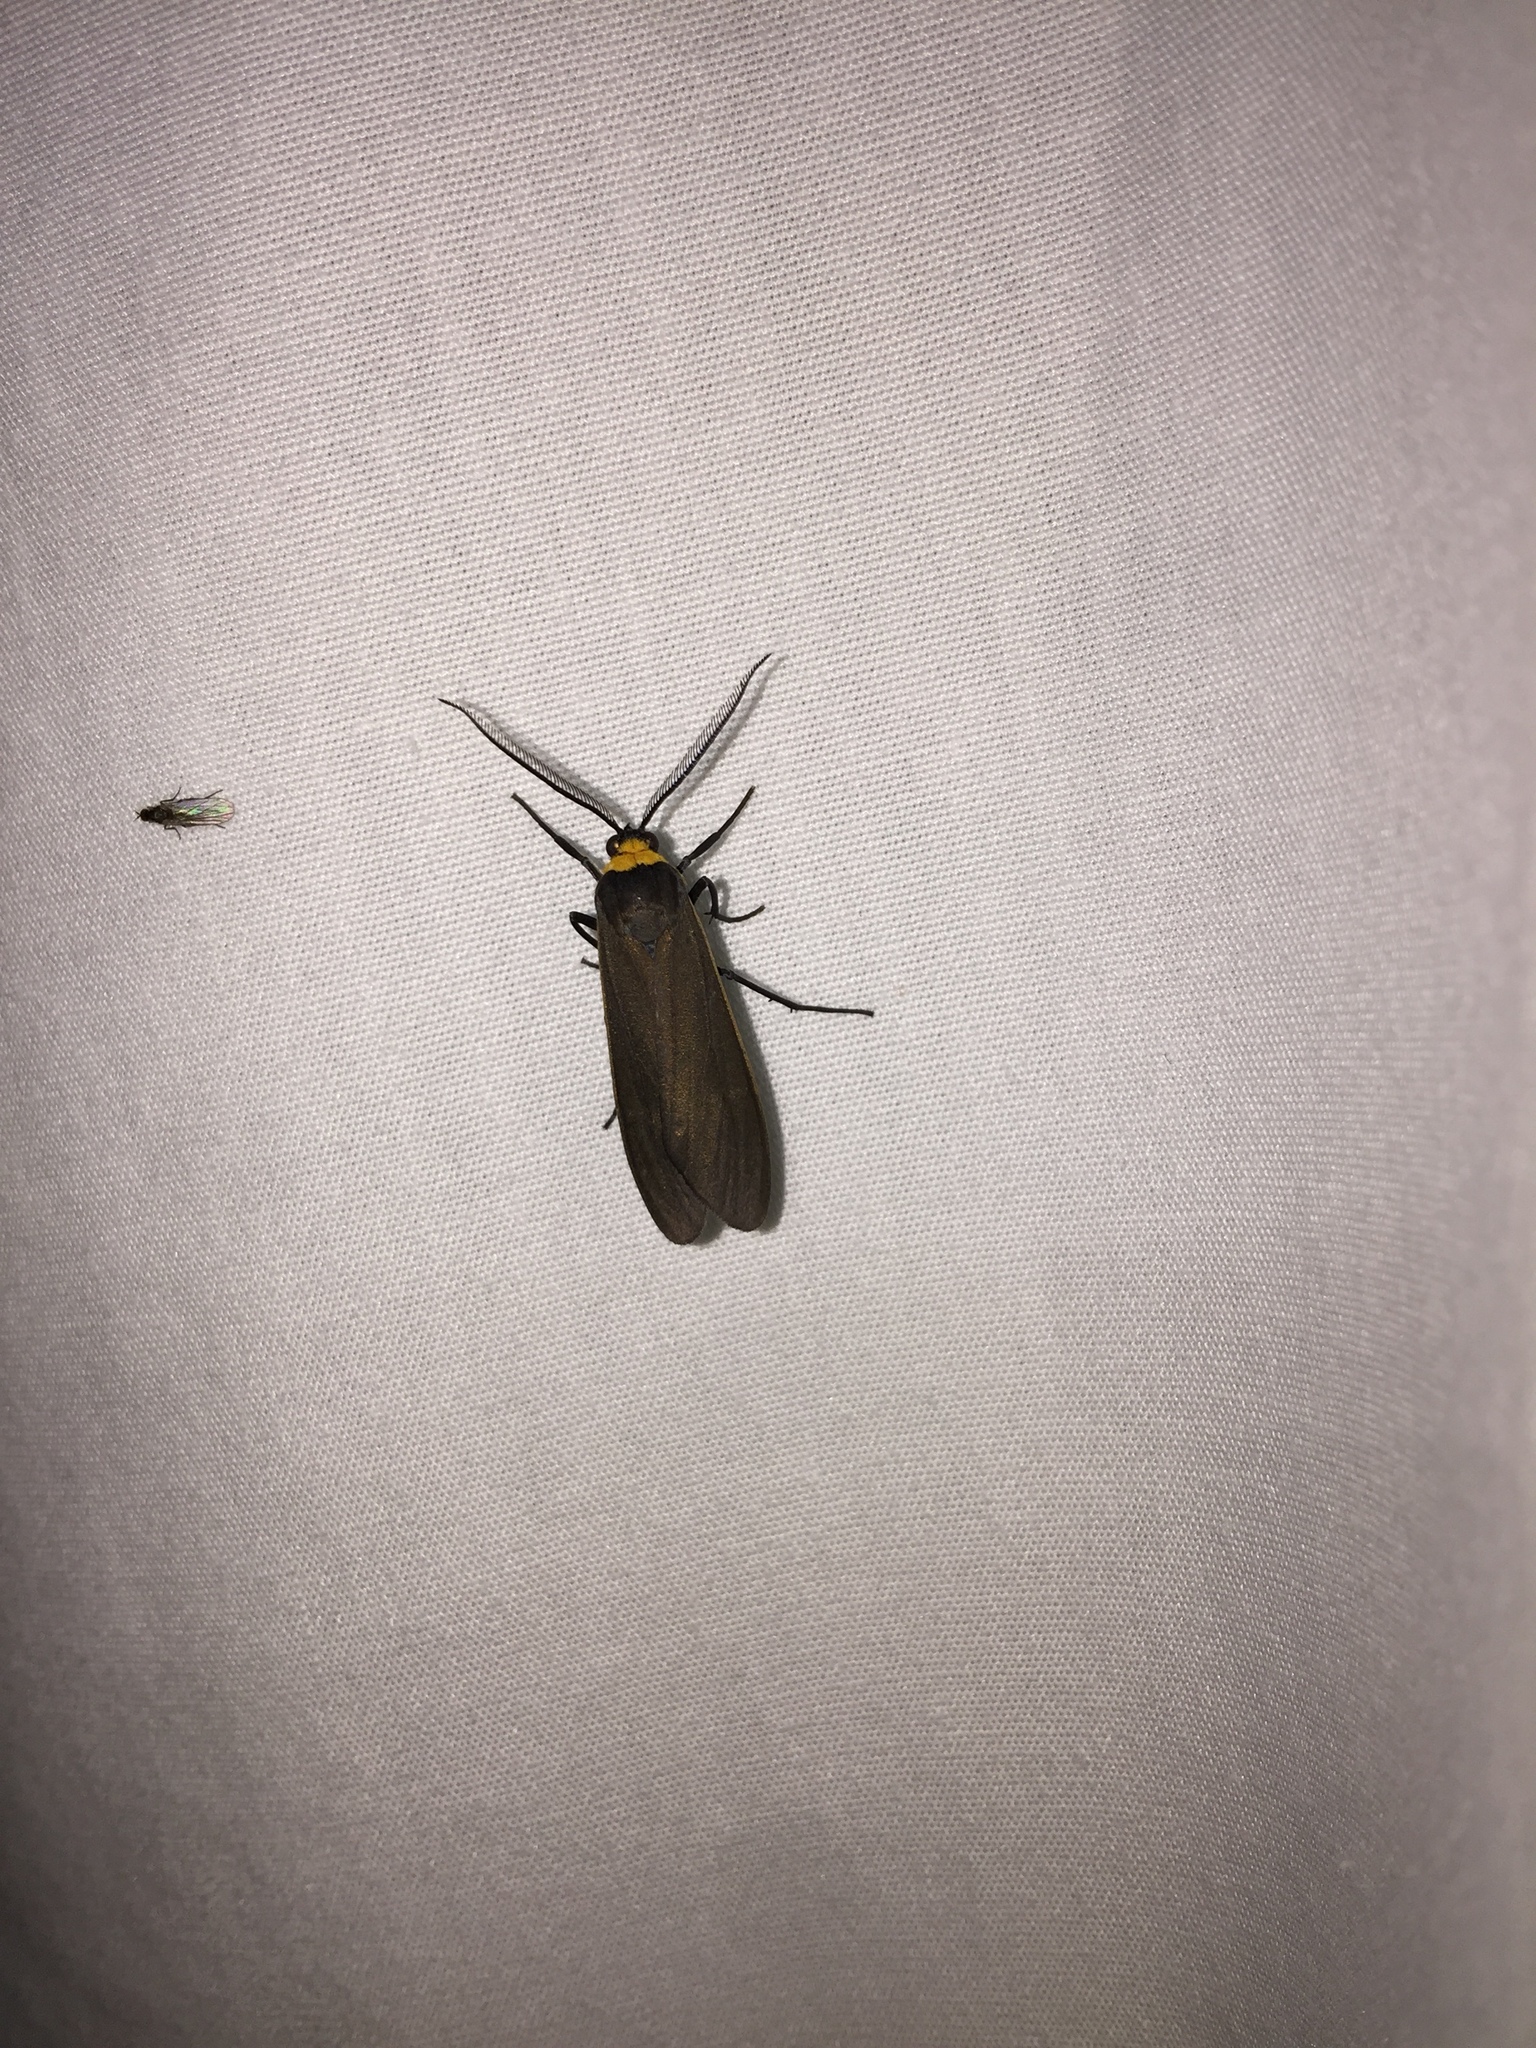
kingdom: Animalia
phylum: Arthropoda
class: Insecta
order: Lepidoptera
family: Erebidae
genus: Cisseps
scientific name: Cisseps fulvicollis
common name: Yellow-collared scape moth
